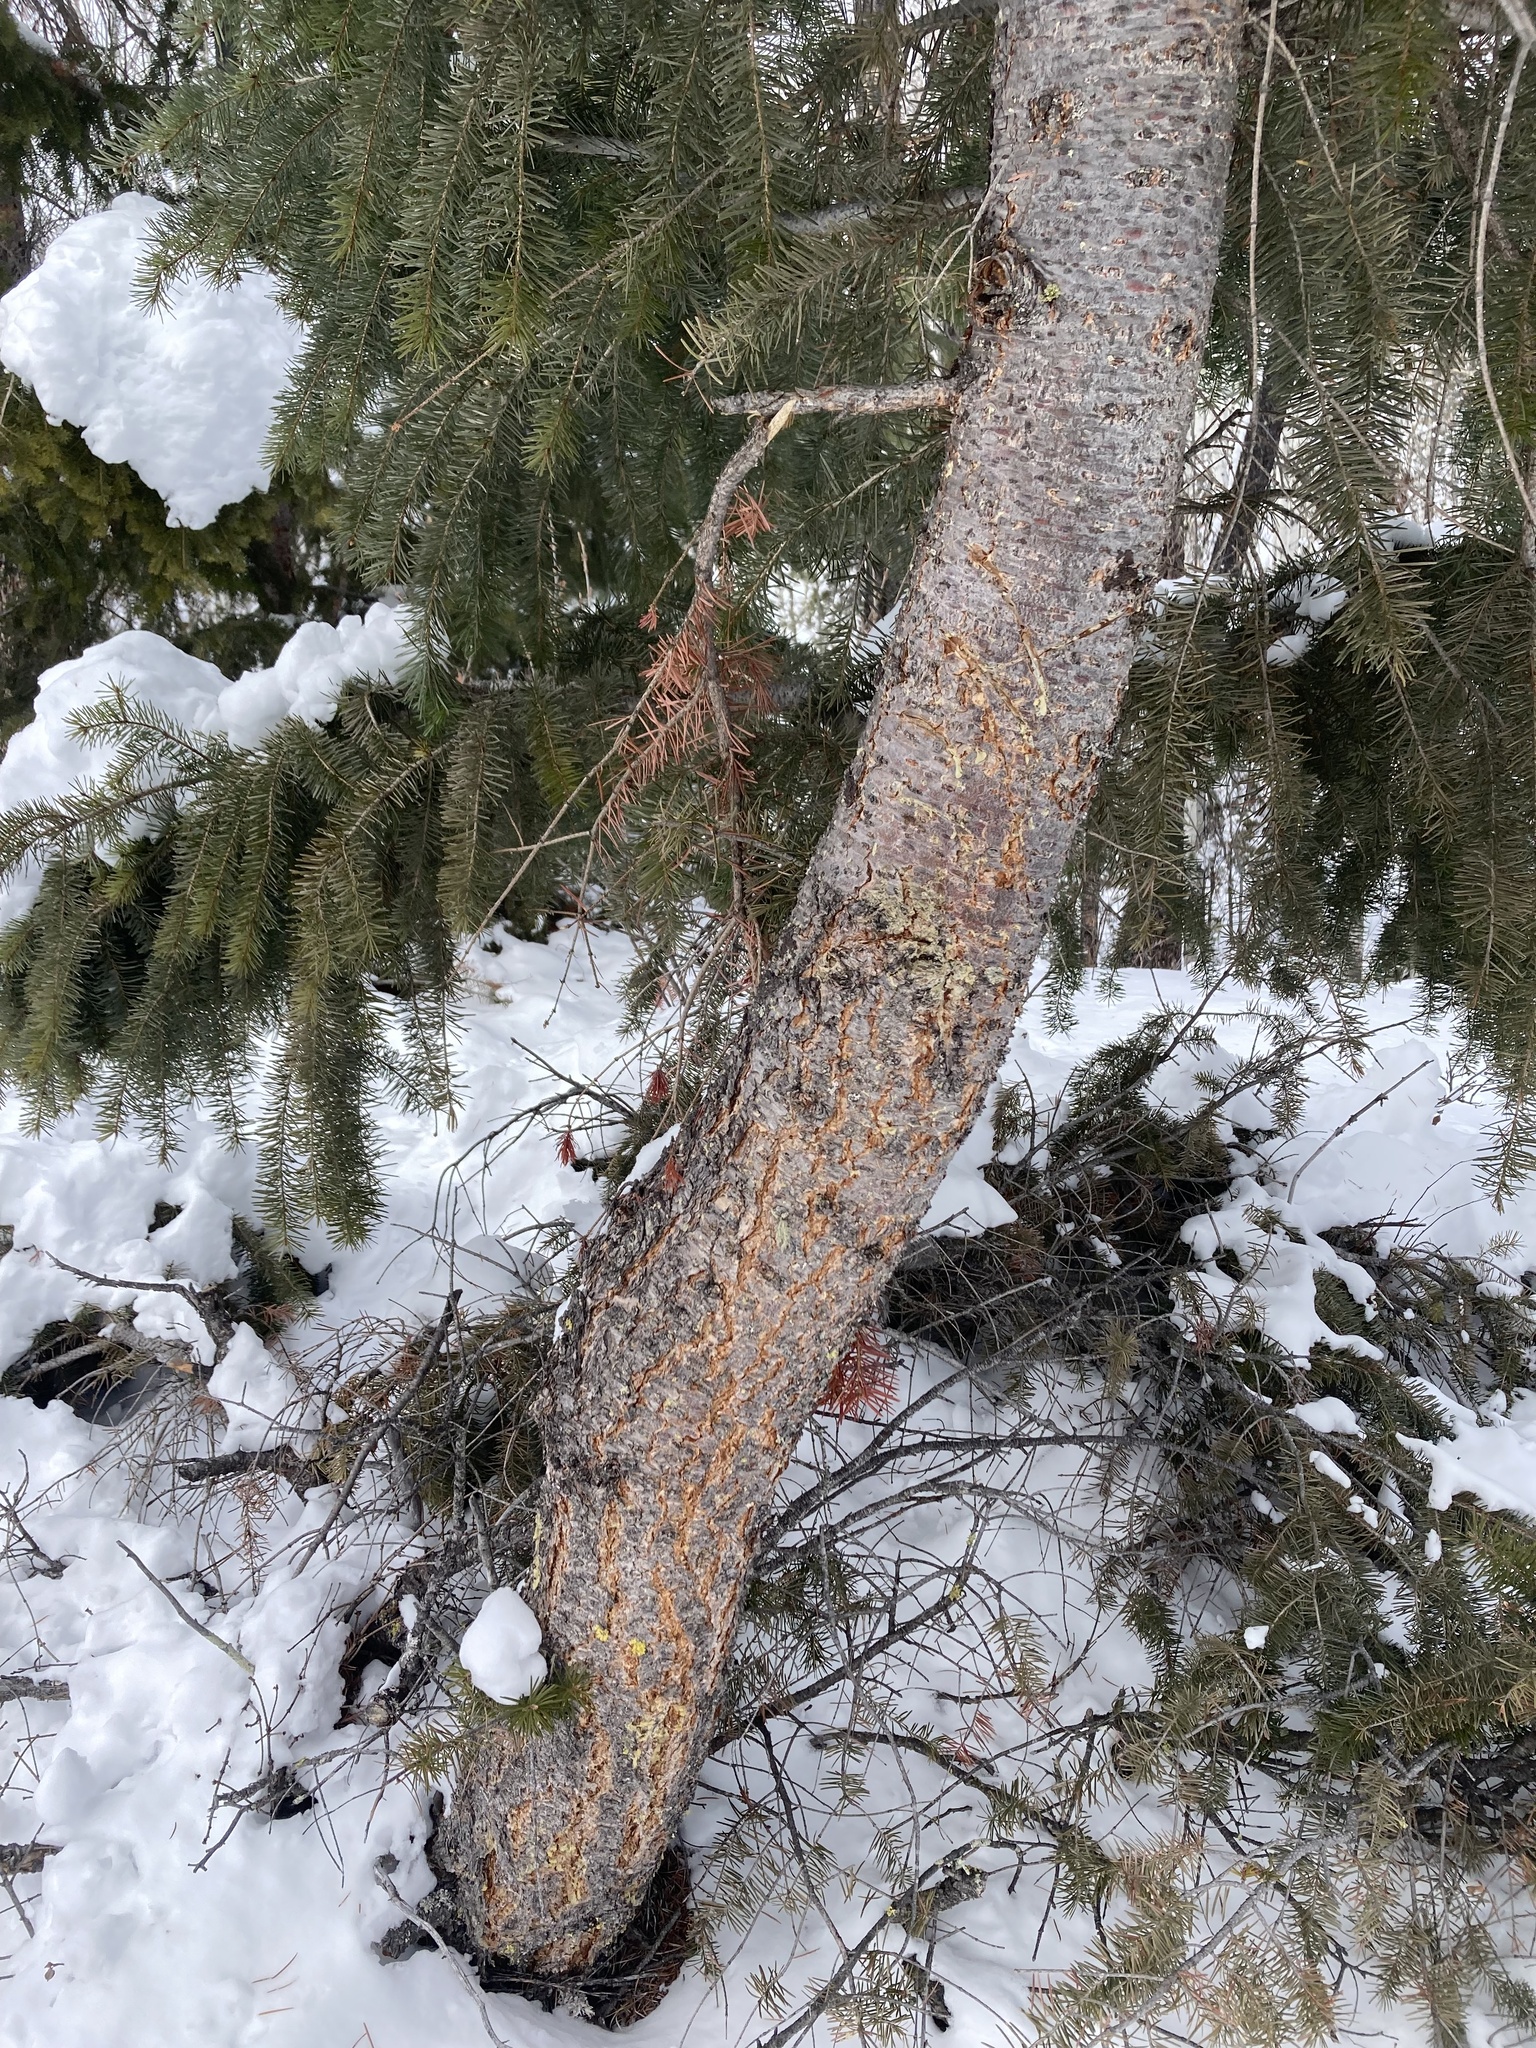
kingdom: Plantae
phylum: Tracheophyta
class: Pinopsida
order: Pinales
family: Pinaceae
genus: Pseudotsuga
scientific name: Pseudotsuga menziesii
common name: Douglas fir
